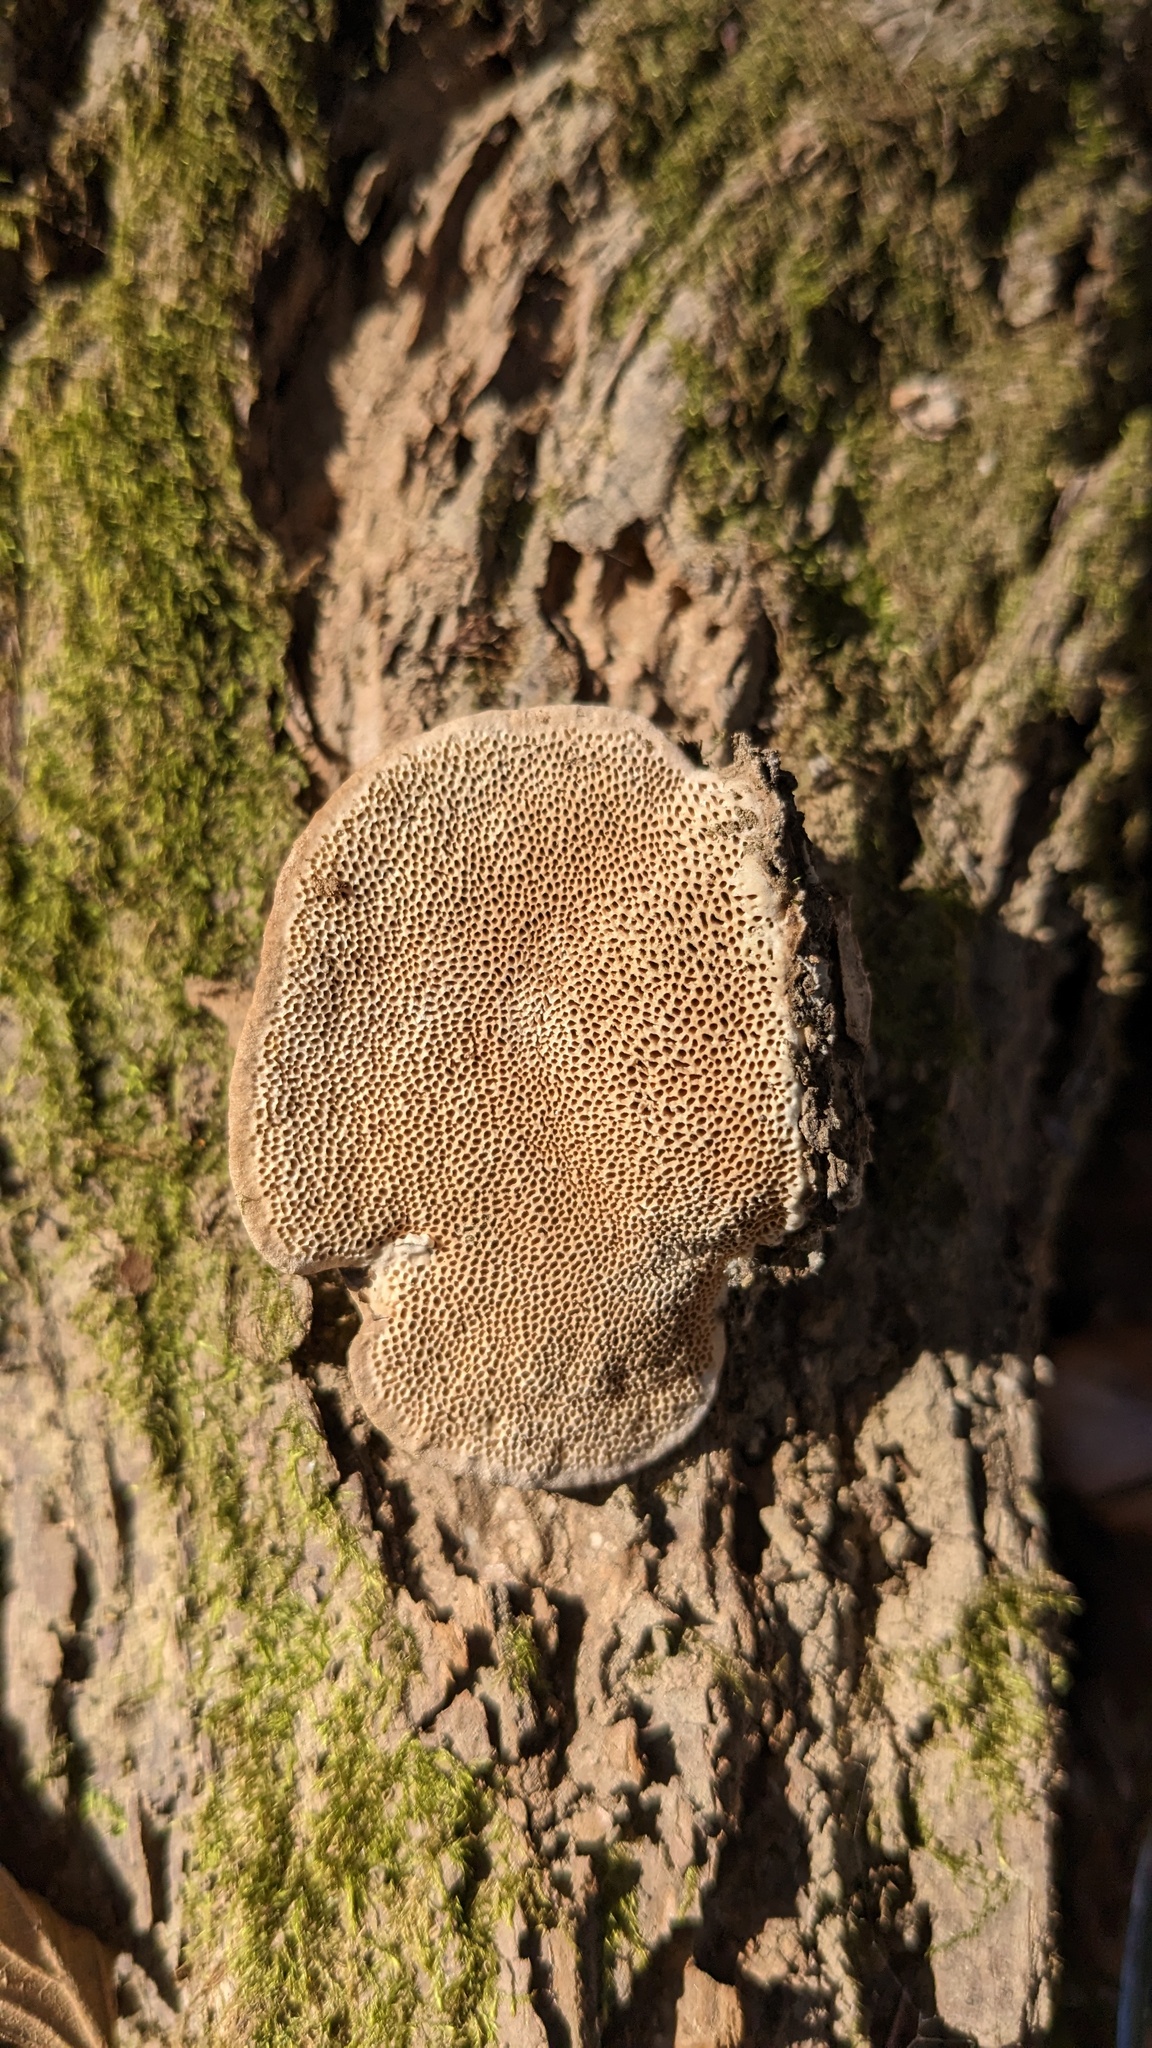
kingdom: Fungi
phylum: Basidiomycota
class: Agaricomycetes
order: Polyporales
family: Fomitopsidaceae
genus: Fomitopsis
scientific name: Fomitopsis
